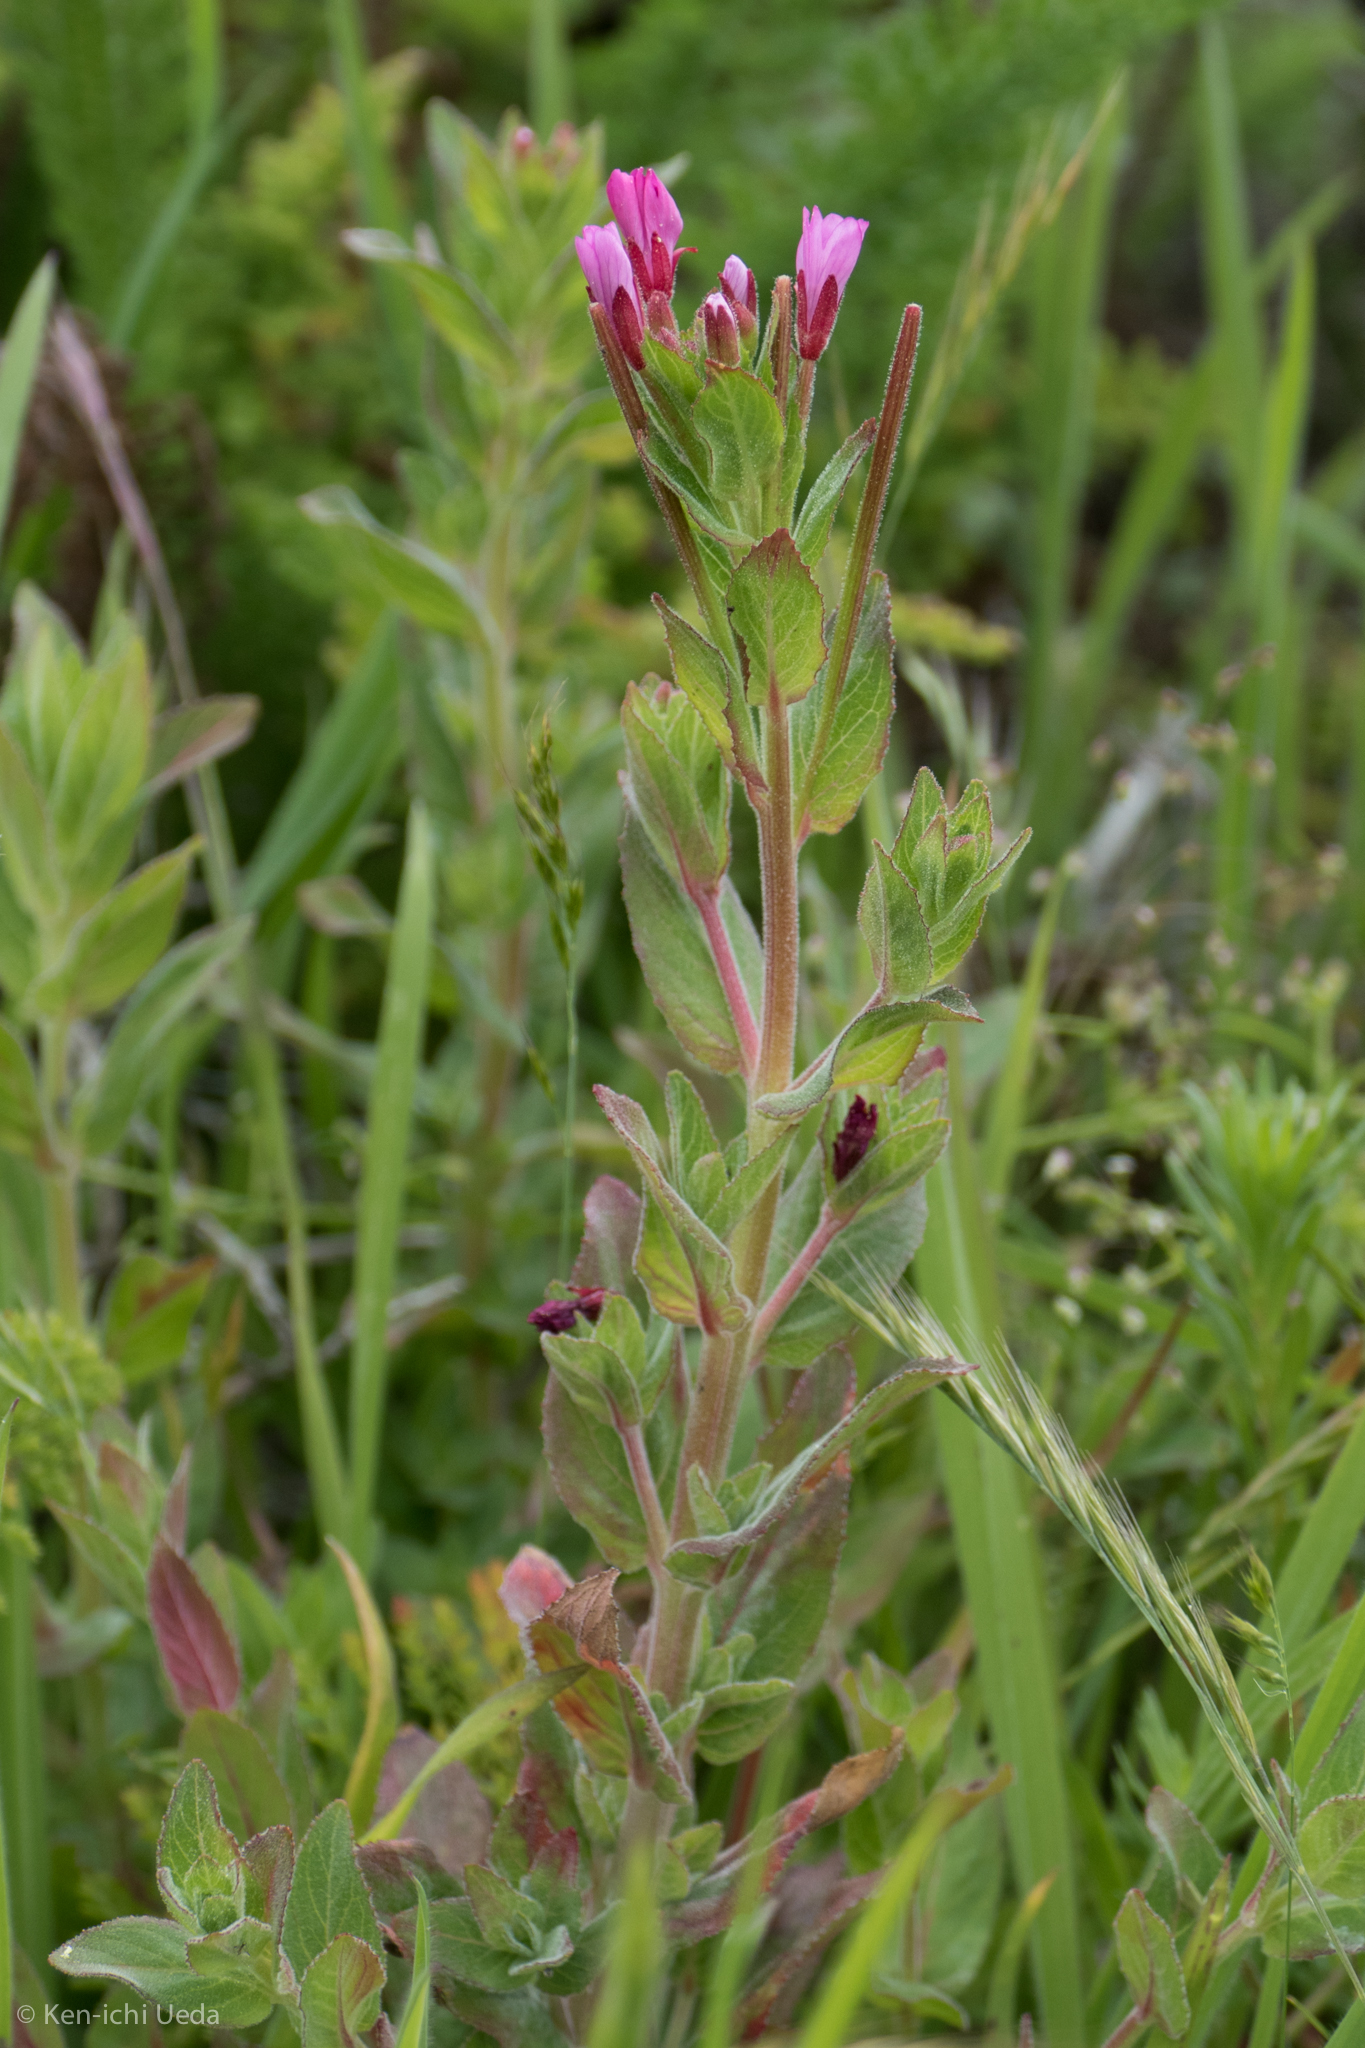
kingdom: Plantae
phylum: Tracheophyta
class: Magnoliopsida
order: Myrtales
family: Onagraceae
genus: Epilobium
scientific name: Epilobium ciliatum
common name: American willowherb
